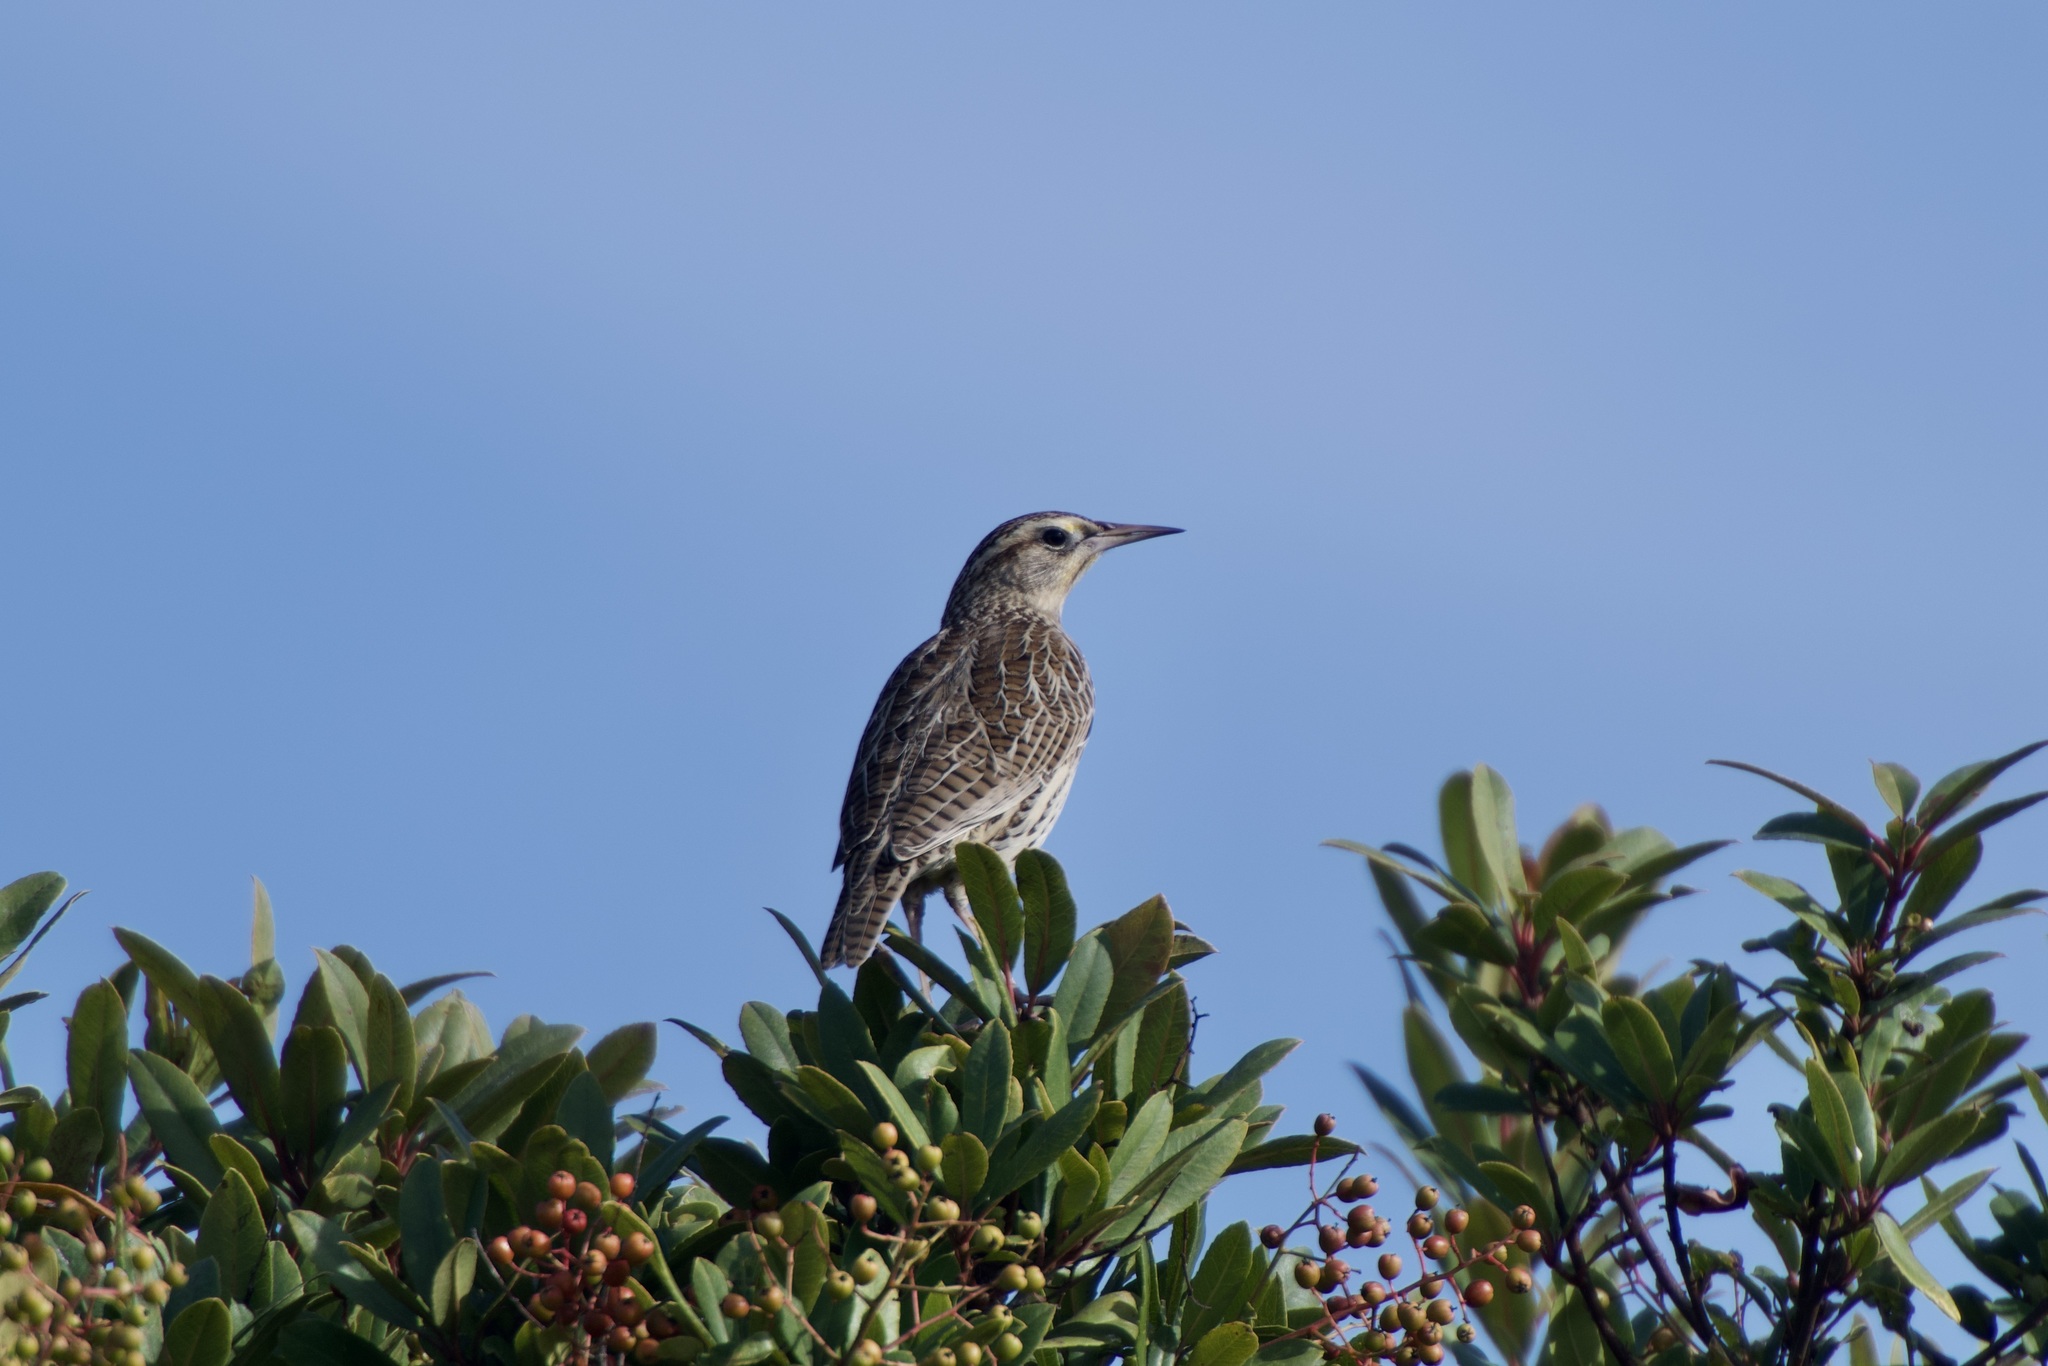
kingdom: Animalia
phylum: Chordata
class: Aves
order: Passeriformes
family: Icteridae
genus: Sturnella
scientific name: Sturnella neglecta
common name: Western meadowlark
